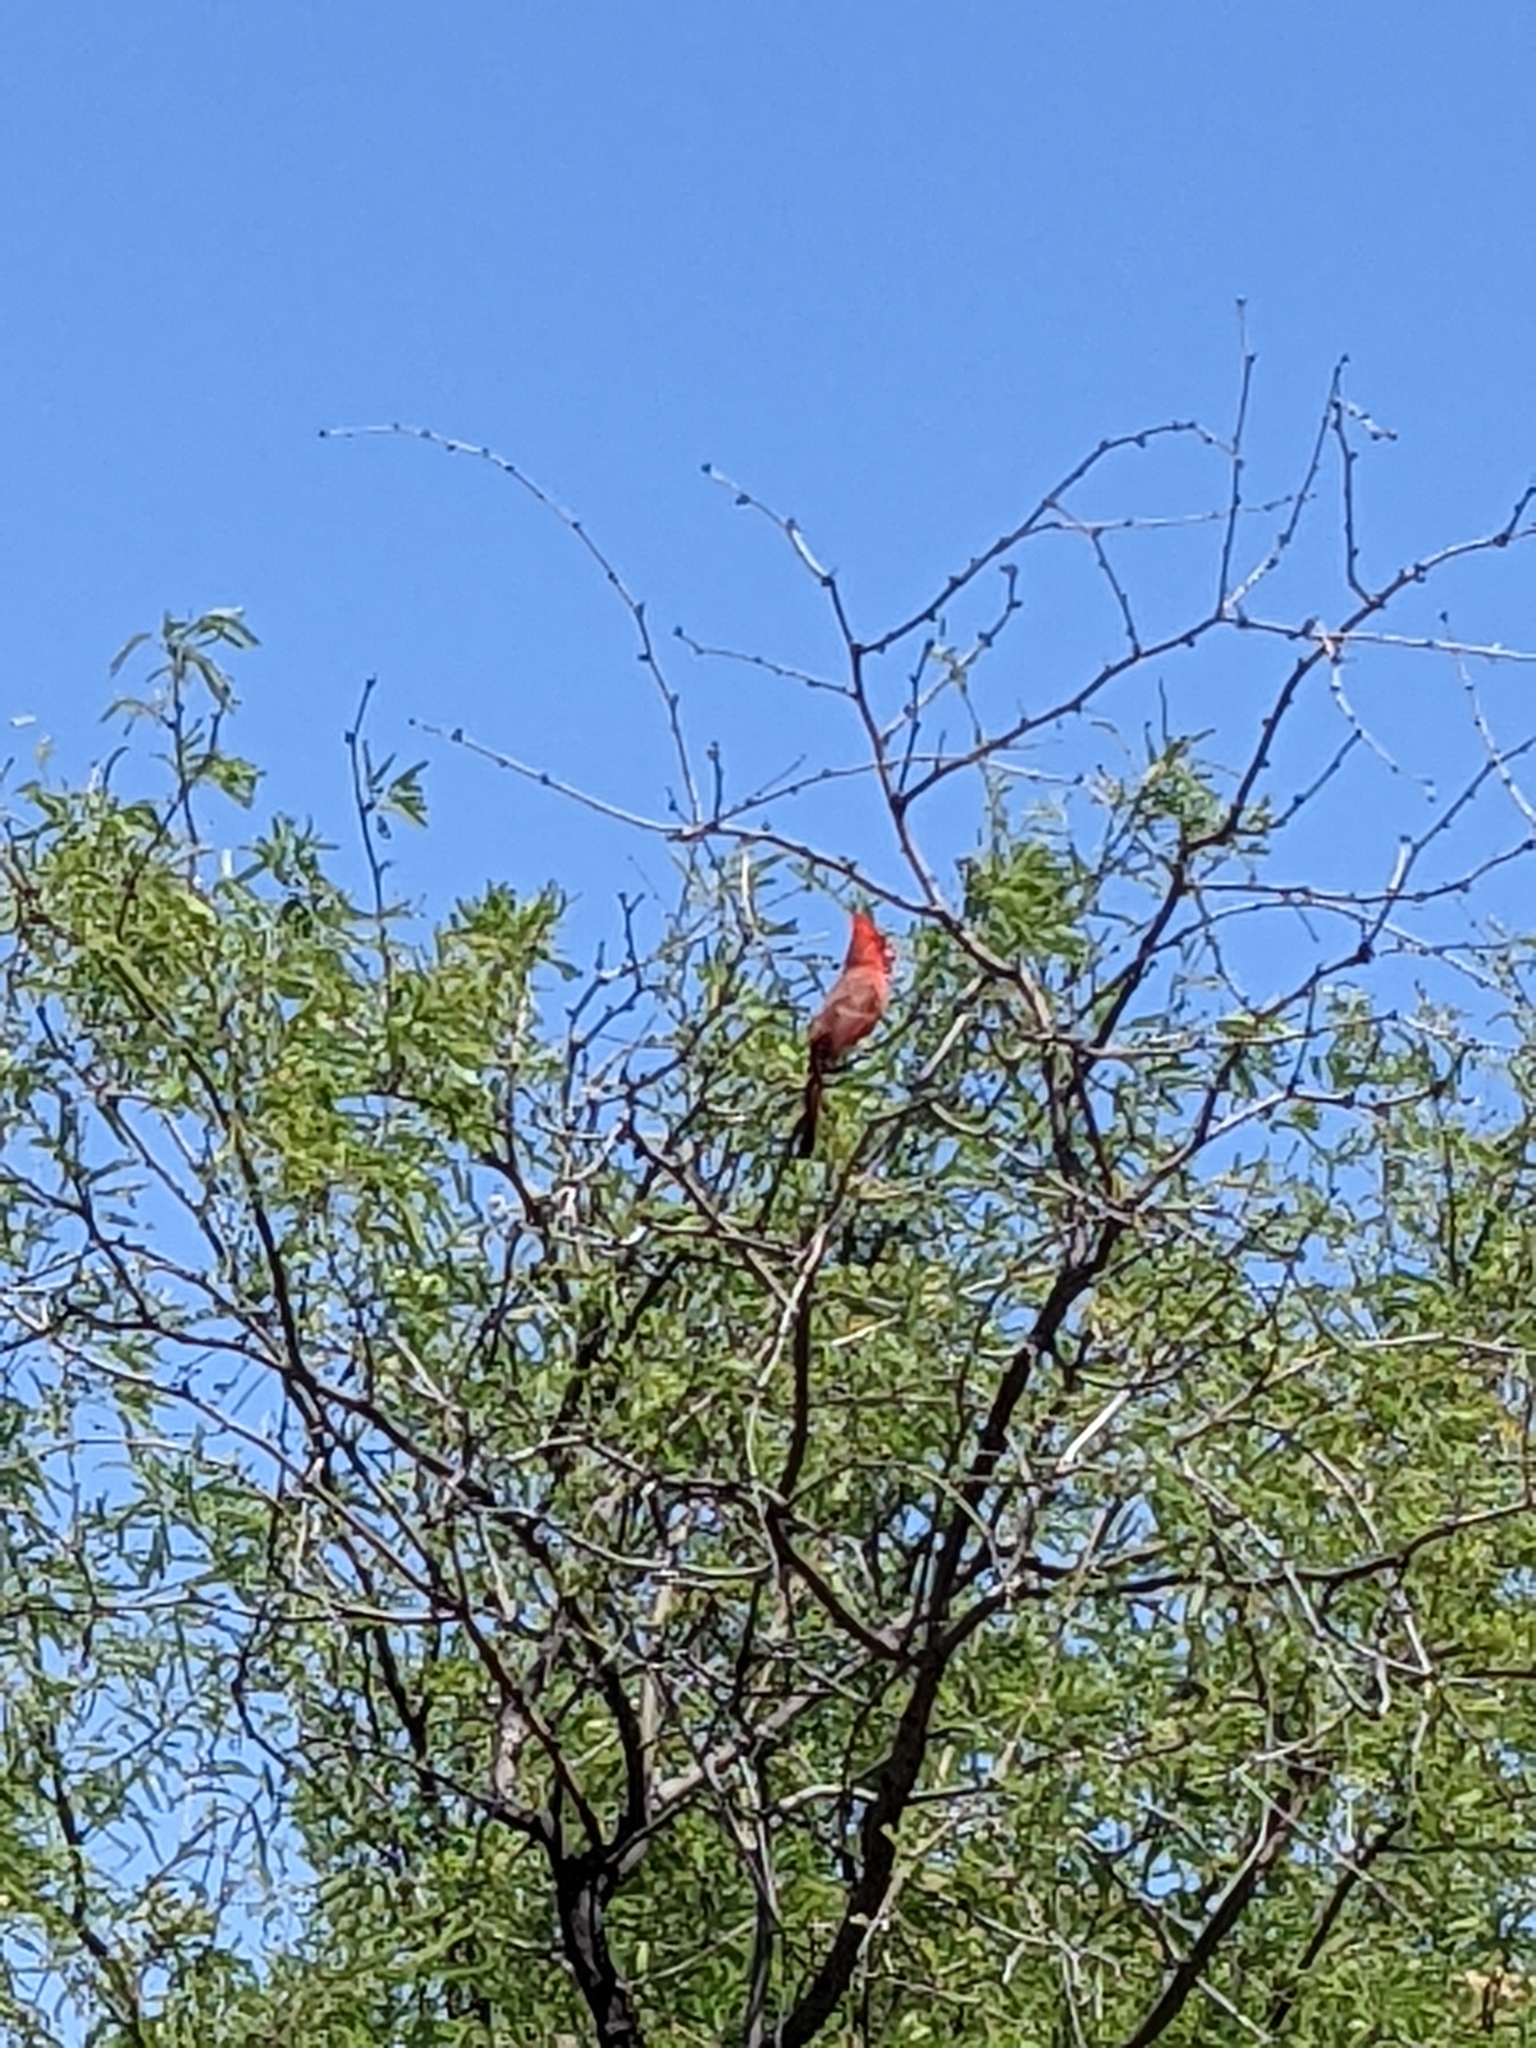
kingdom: Animalia
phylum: Chordata
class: Aves
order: Passeriformes
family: Cardinalidae
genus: Cardinalis
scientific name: Cardinalis cardinalis
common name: Northern cardinal
